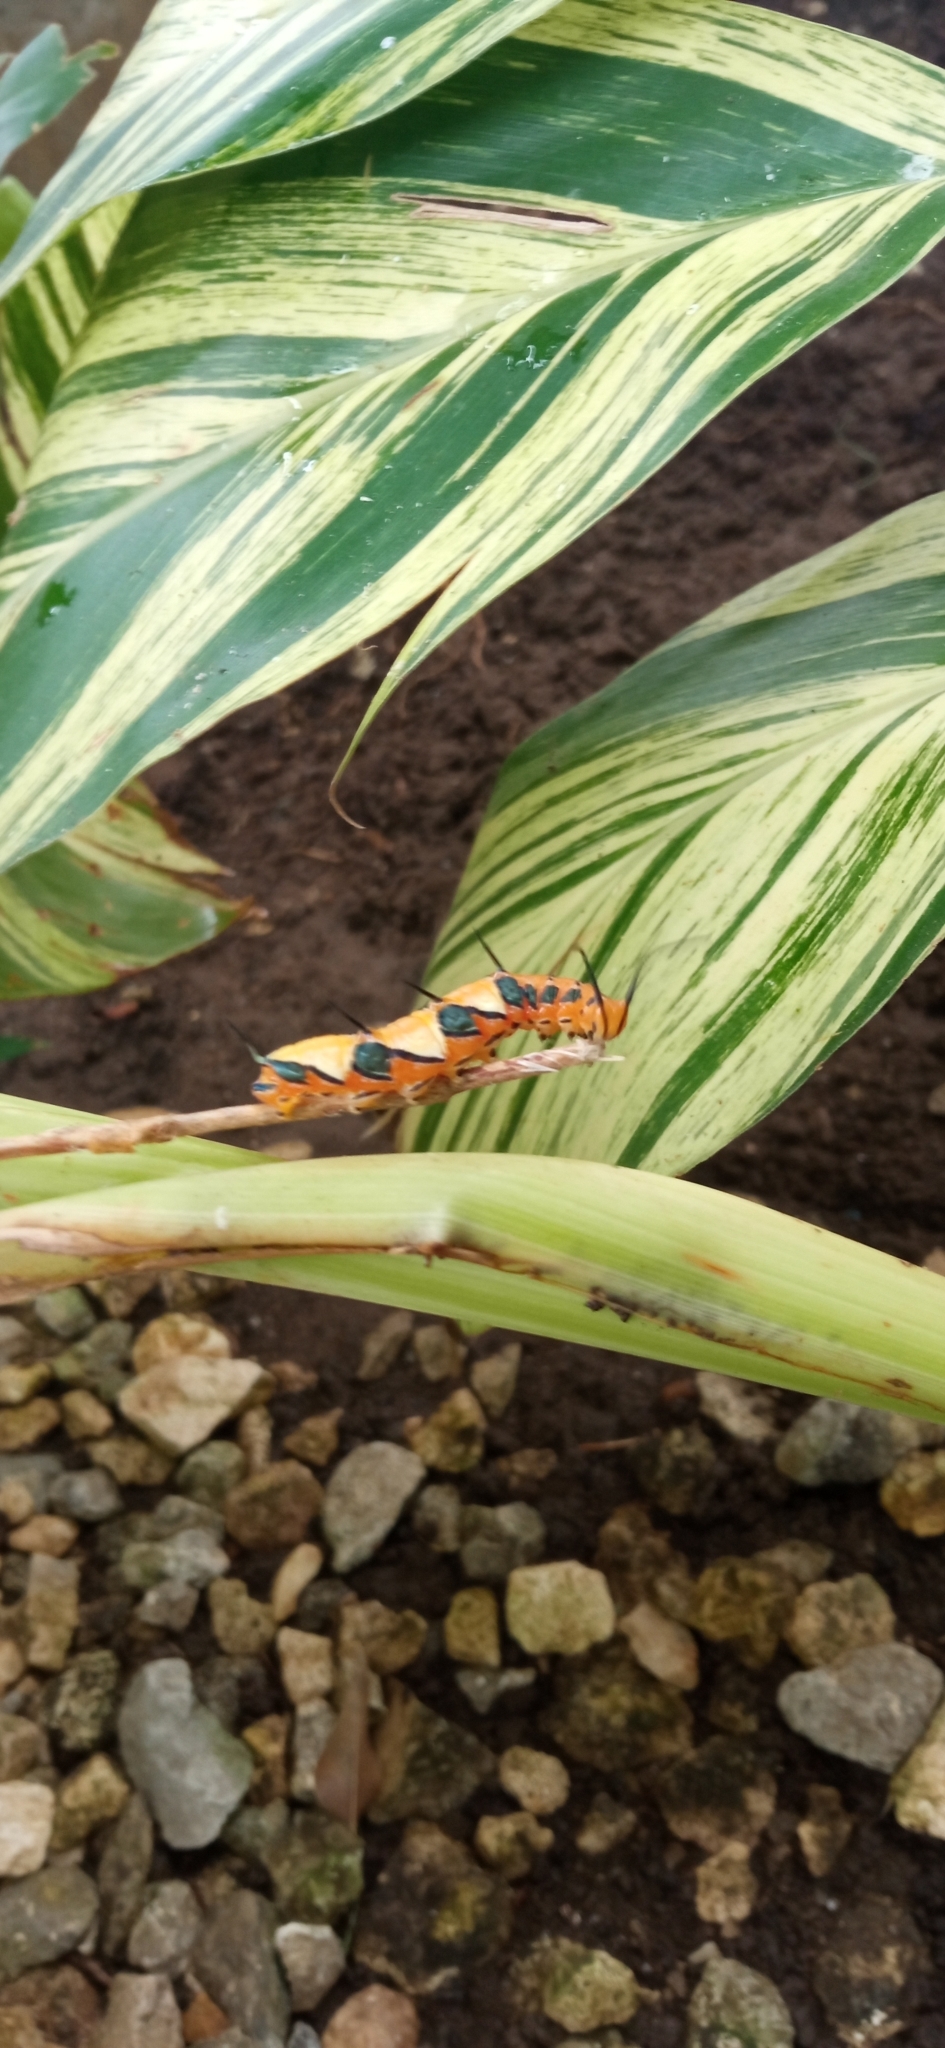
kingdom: Animalia
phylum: Arthropoda
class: Insecta
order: Lepidoptera
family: Nymphalidae
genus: Marpesia
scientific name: Marpesia petreus
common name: Red dagger wing
